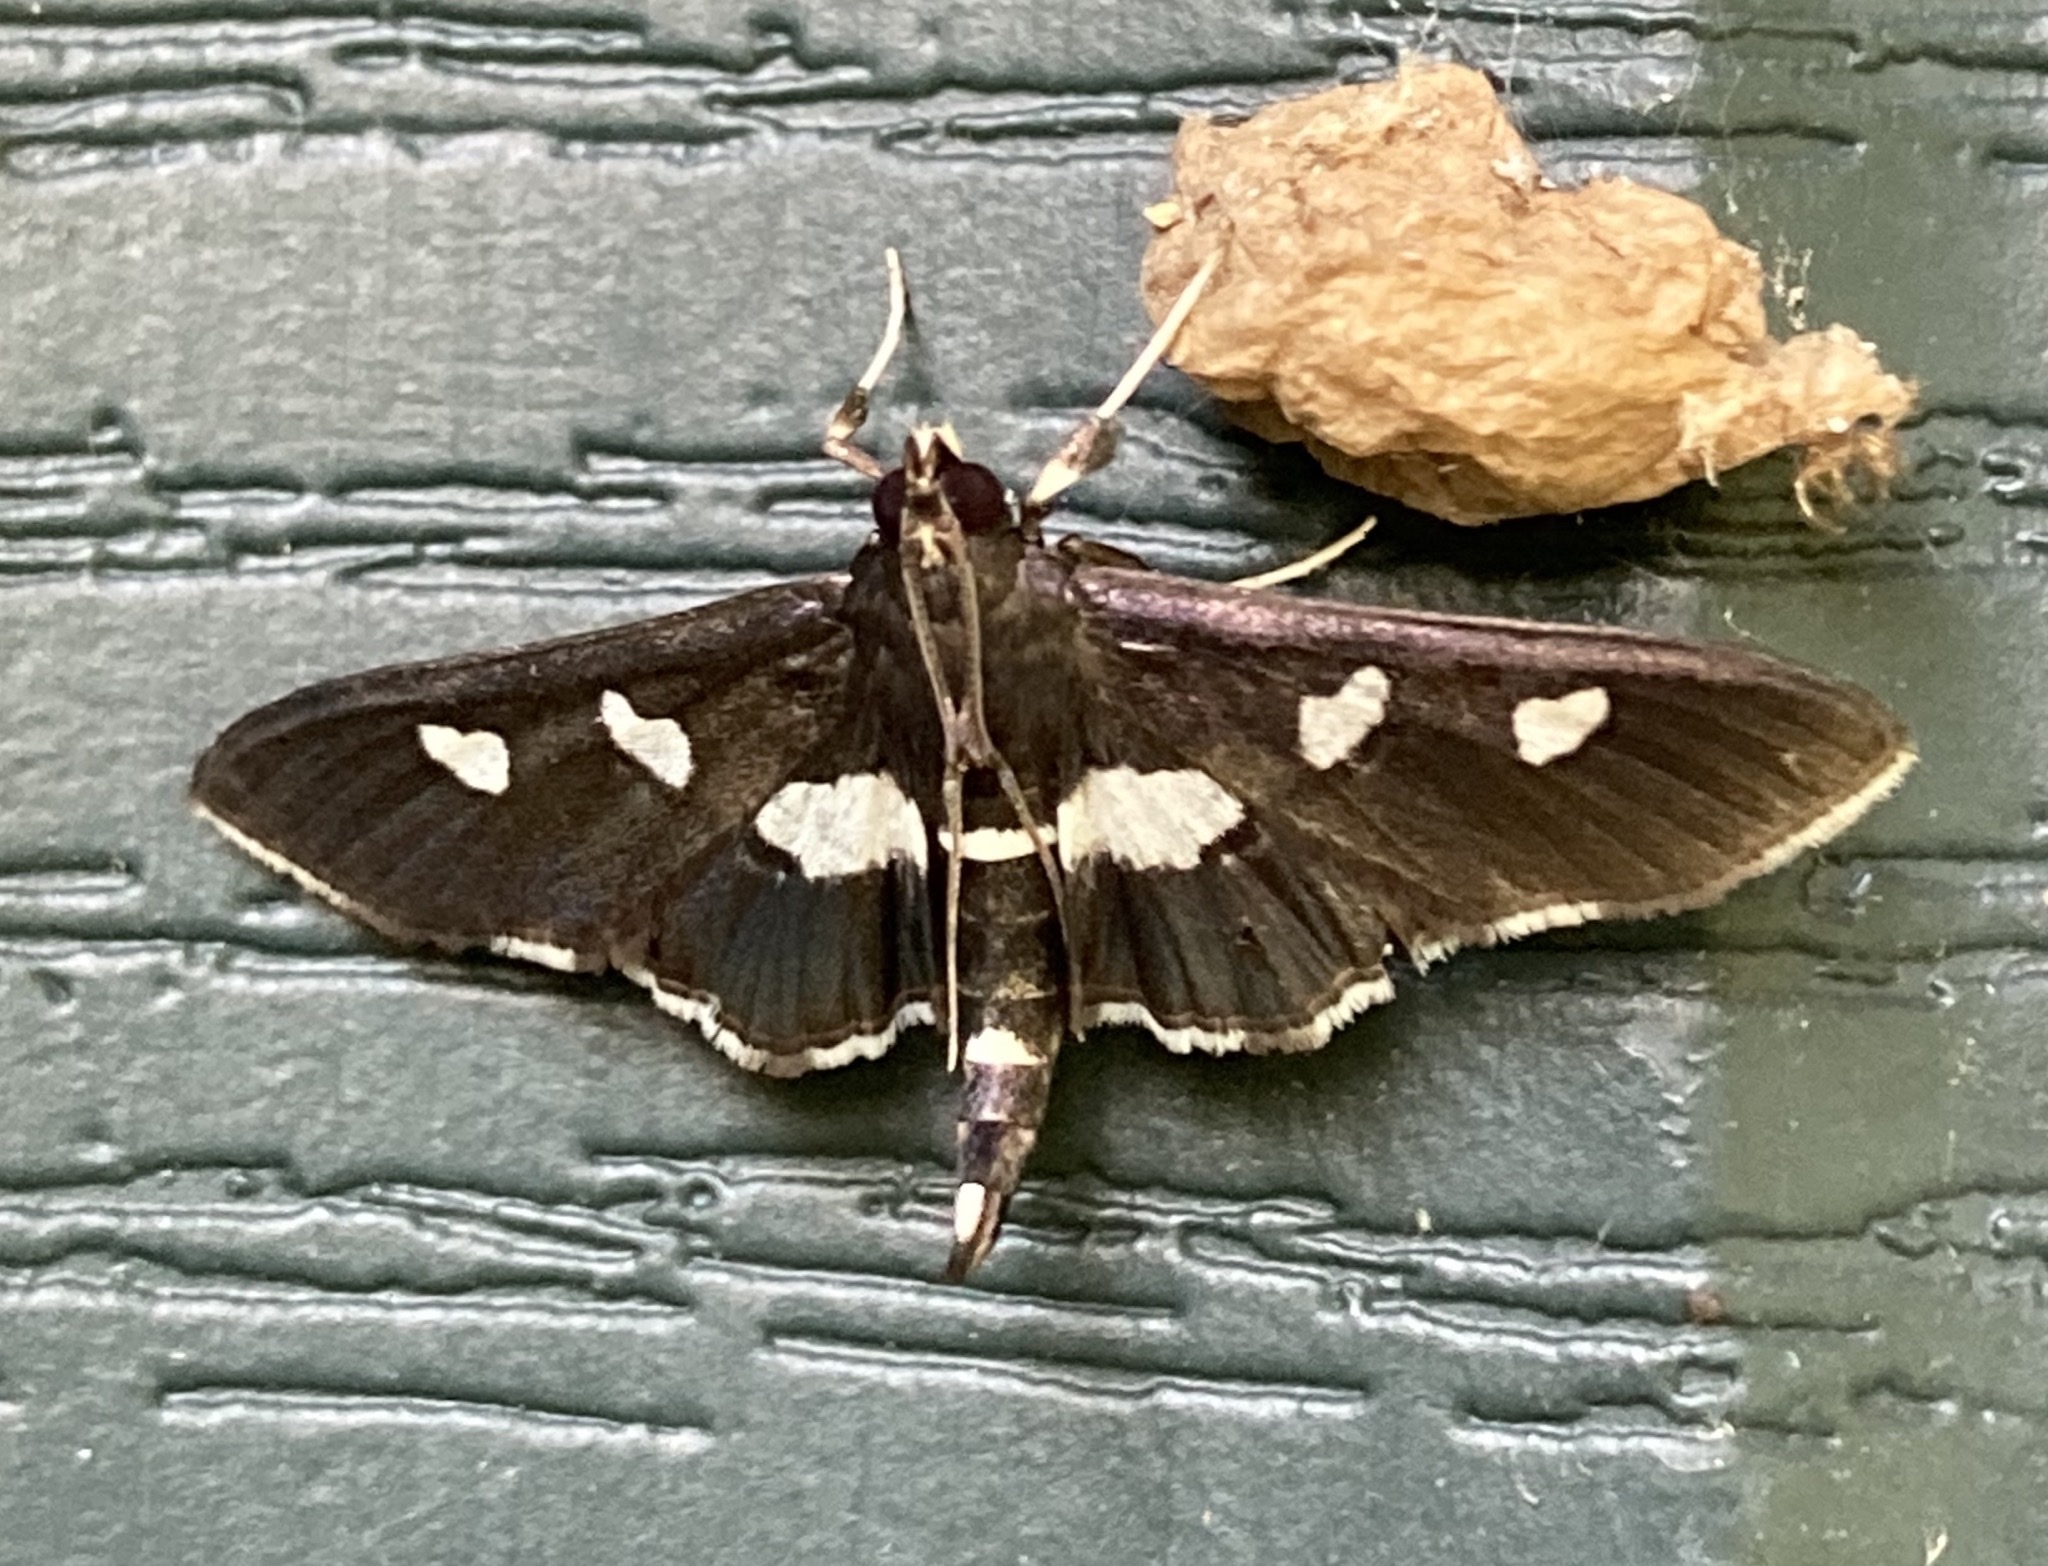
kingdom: Animalia
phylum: Arthropoda
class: Insecta
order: Lepidoptera
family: Crambidae
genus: Desmia
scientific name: Desmia funeralis
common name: Grape leaf folder moth
